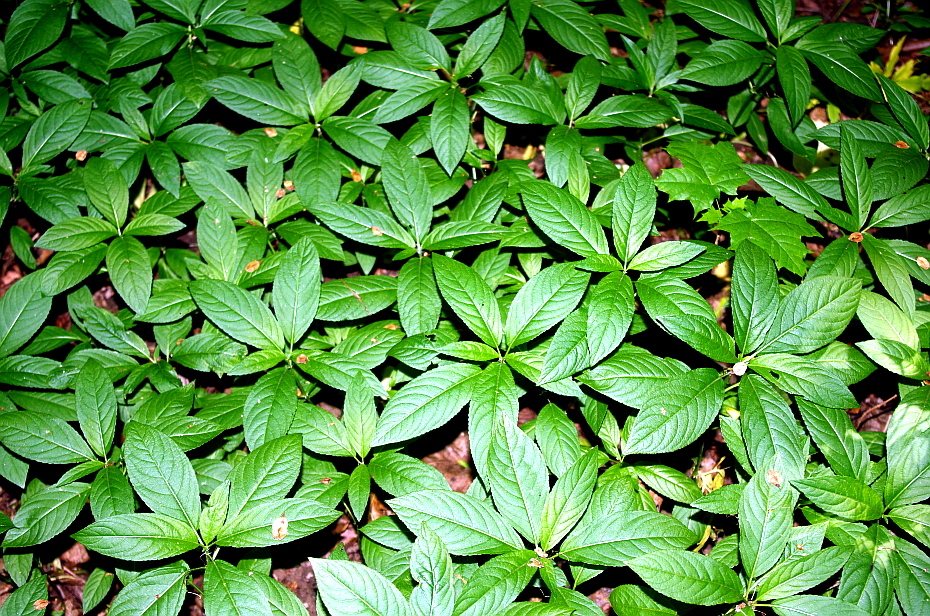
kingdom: Plantae
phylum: Tracheophyta
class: Magnoliopsida
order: Malpighiales
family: Euphorbiaceae
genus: Mercurialis
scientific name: Mercurialis perennis
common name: Dog mercury
